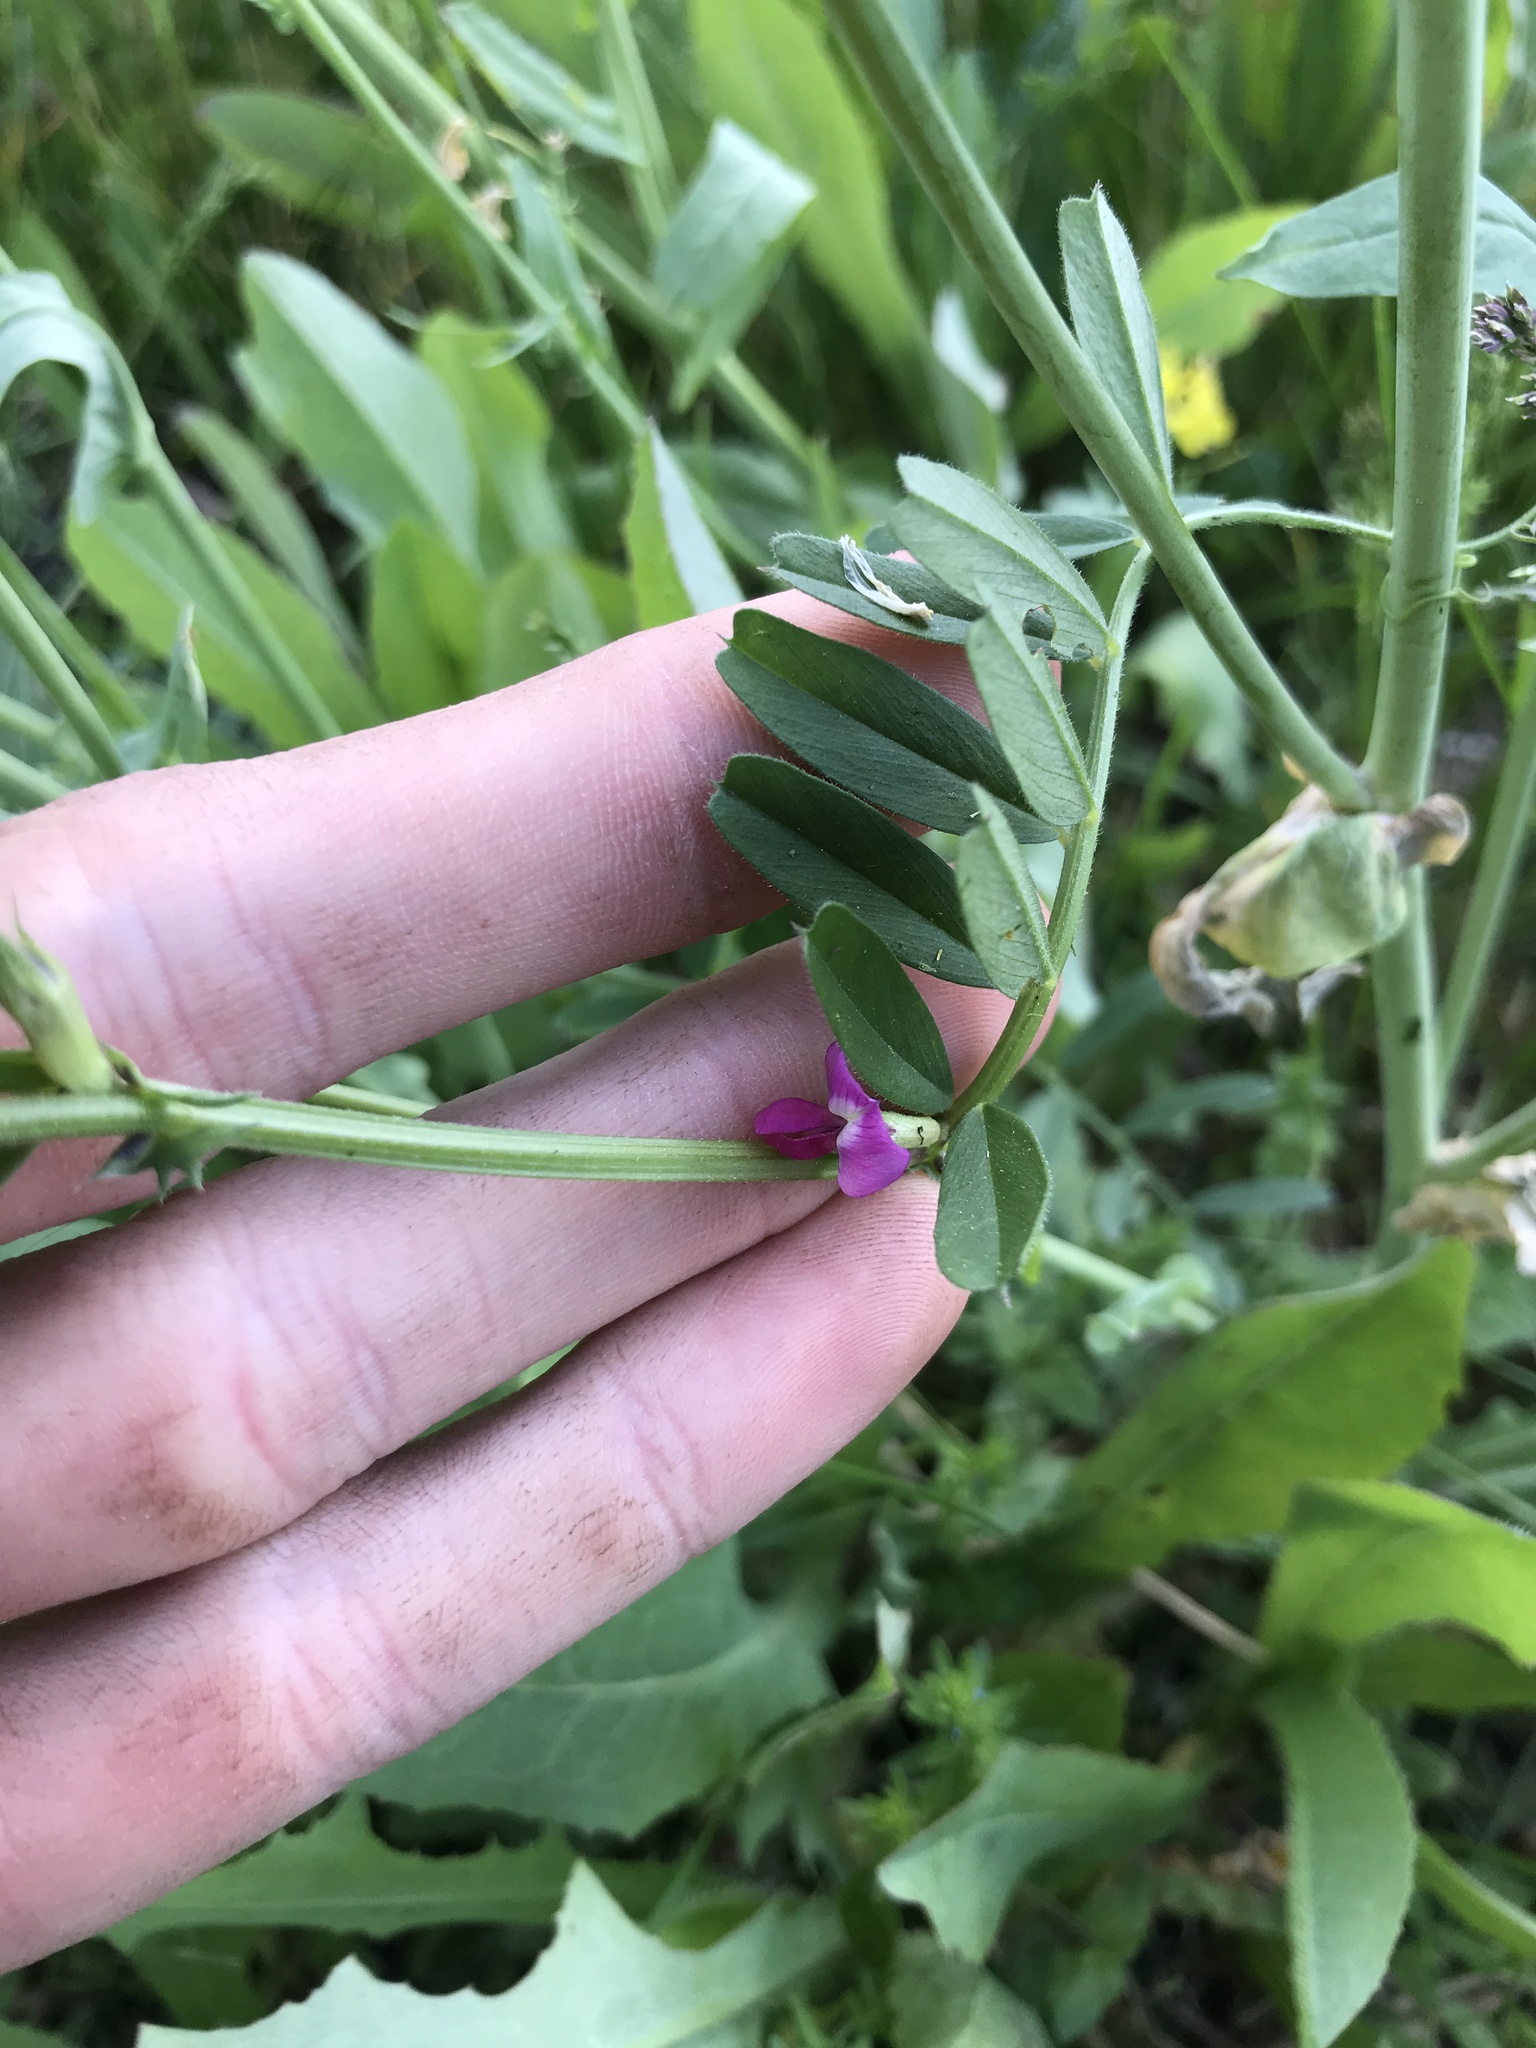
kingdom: Plantae
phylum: Tracheophyta
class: Magnoliopsida
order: Fabales
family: Fabaceae
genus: Vicia
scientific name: Vicia sativa
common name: Garden vetch
